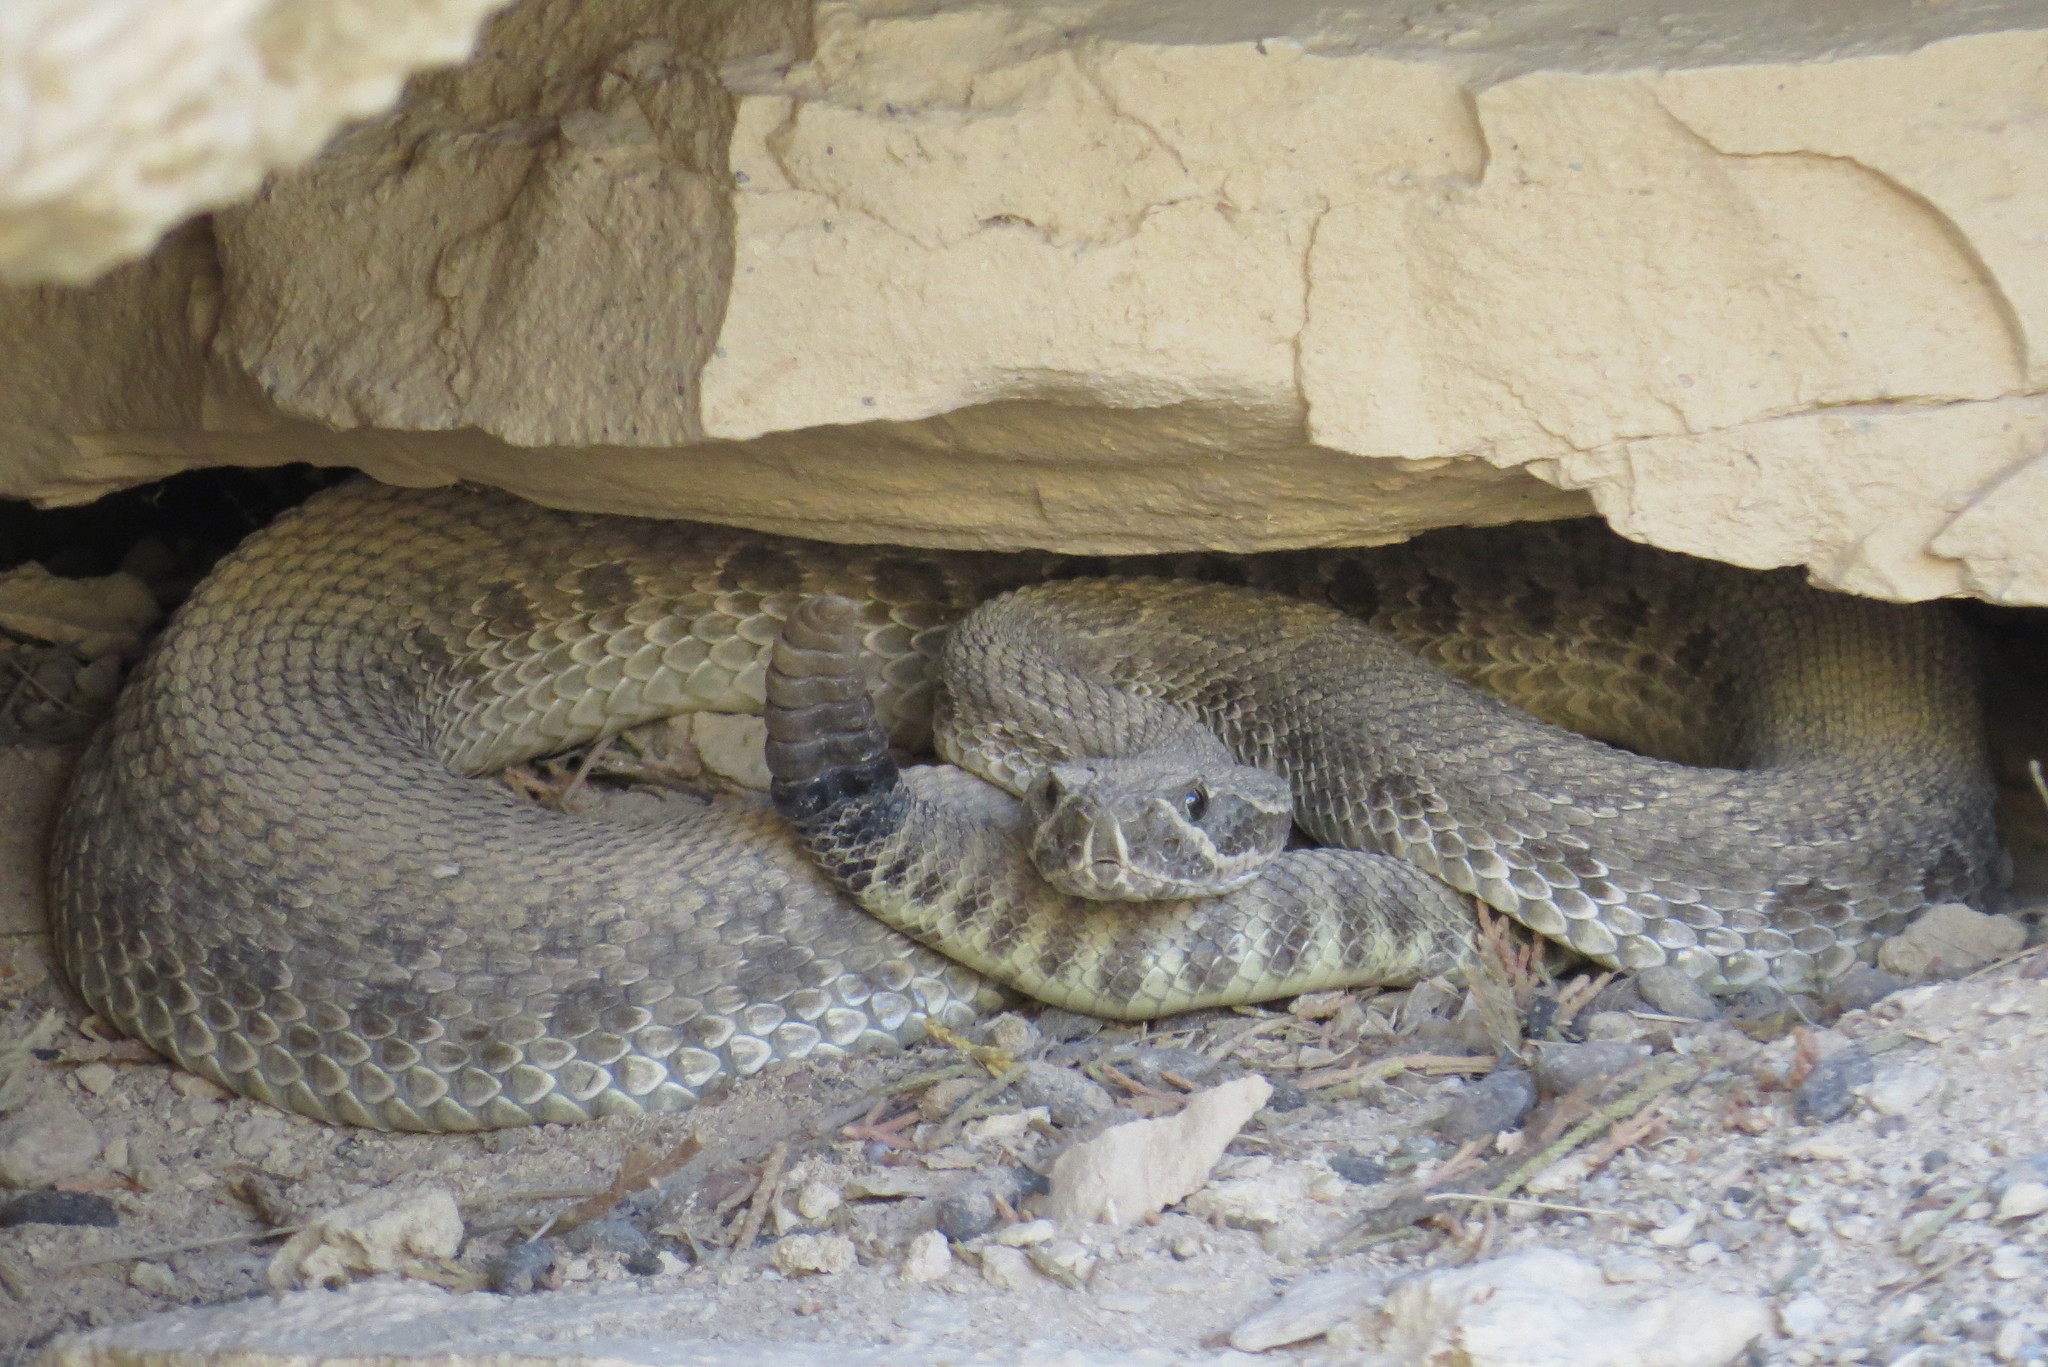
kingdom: Animalia
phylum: Chordata
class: Squamata
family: Viperidae
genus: Crotalus
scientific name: Crotalus viridis
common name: Prairie rattlesnake
